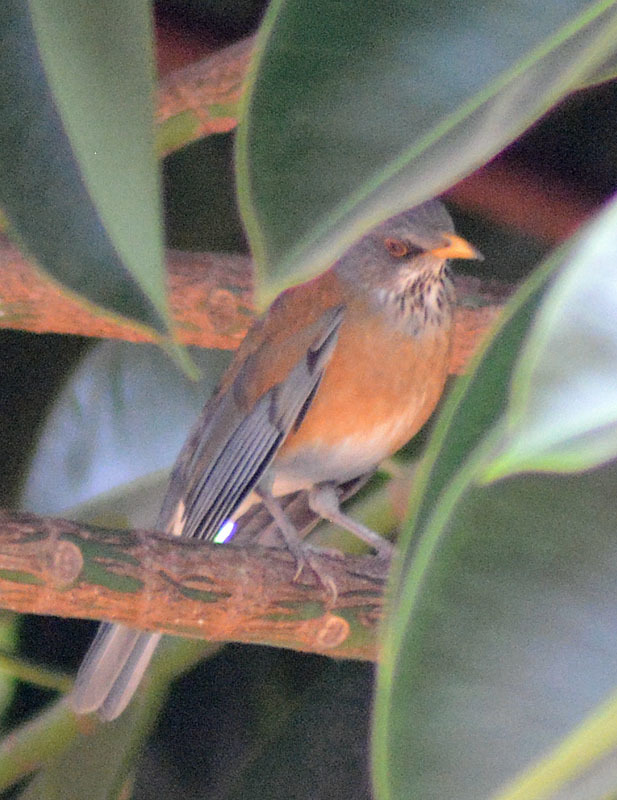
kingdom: Animalia
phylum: Chordata
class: Aves
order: Passeriformes
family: Turdidae
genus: Turdus
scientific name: Turdus rufopalliatus
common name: Rufous-backed robin
